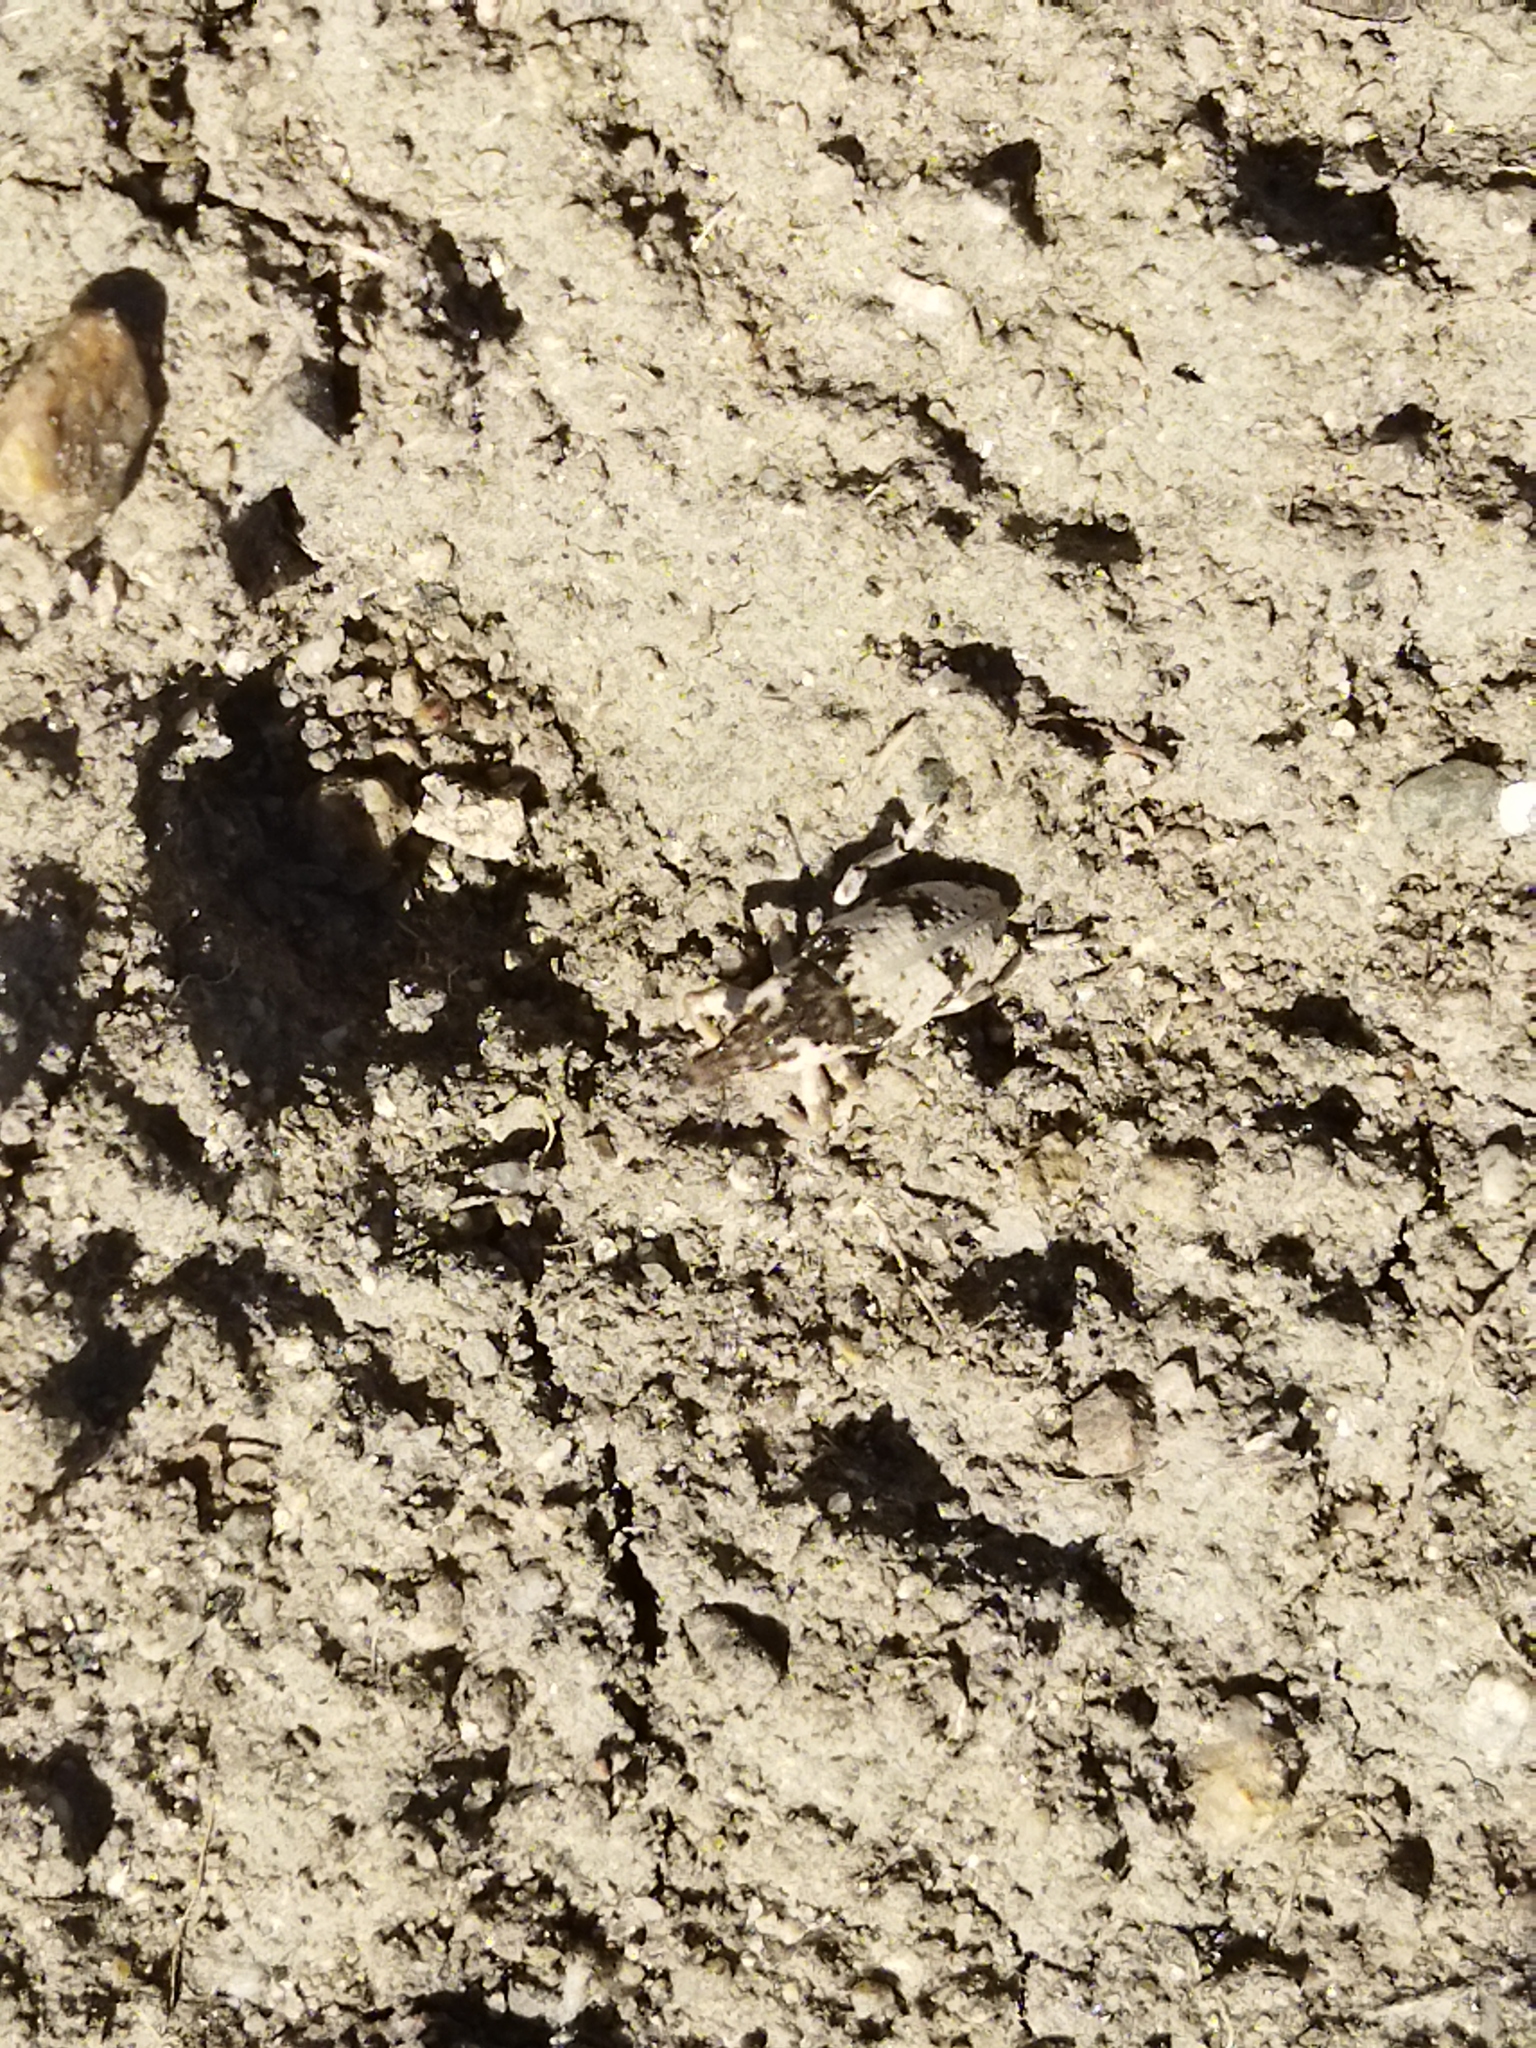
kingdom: Animalia
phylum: Arthropoda
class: Insecta
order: Coleoptera
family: Curculionidae
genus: Bothynoderes
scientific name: Bothynoderes affinis
